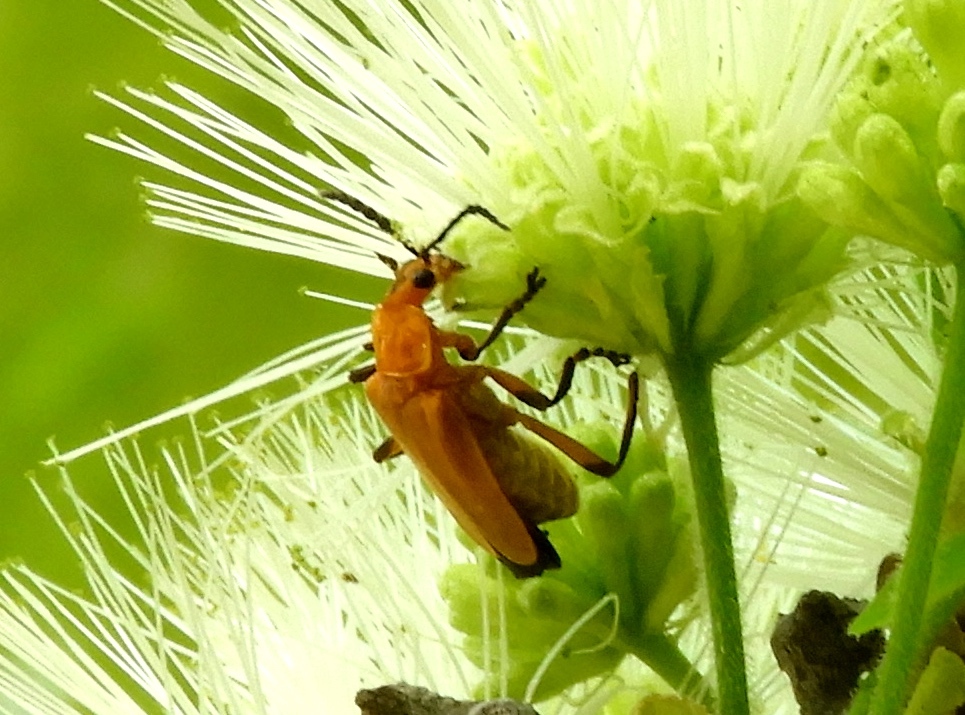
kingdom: Animalia
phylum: Arthropoda
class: Insecta
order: Coleoptera
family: Cantharidae
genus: Chauliognathus
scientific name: Chauliognathus
